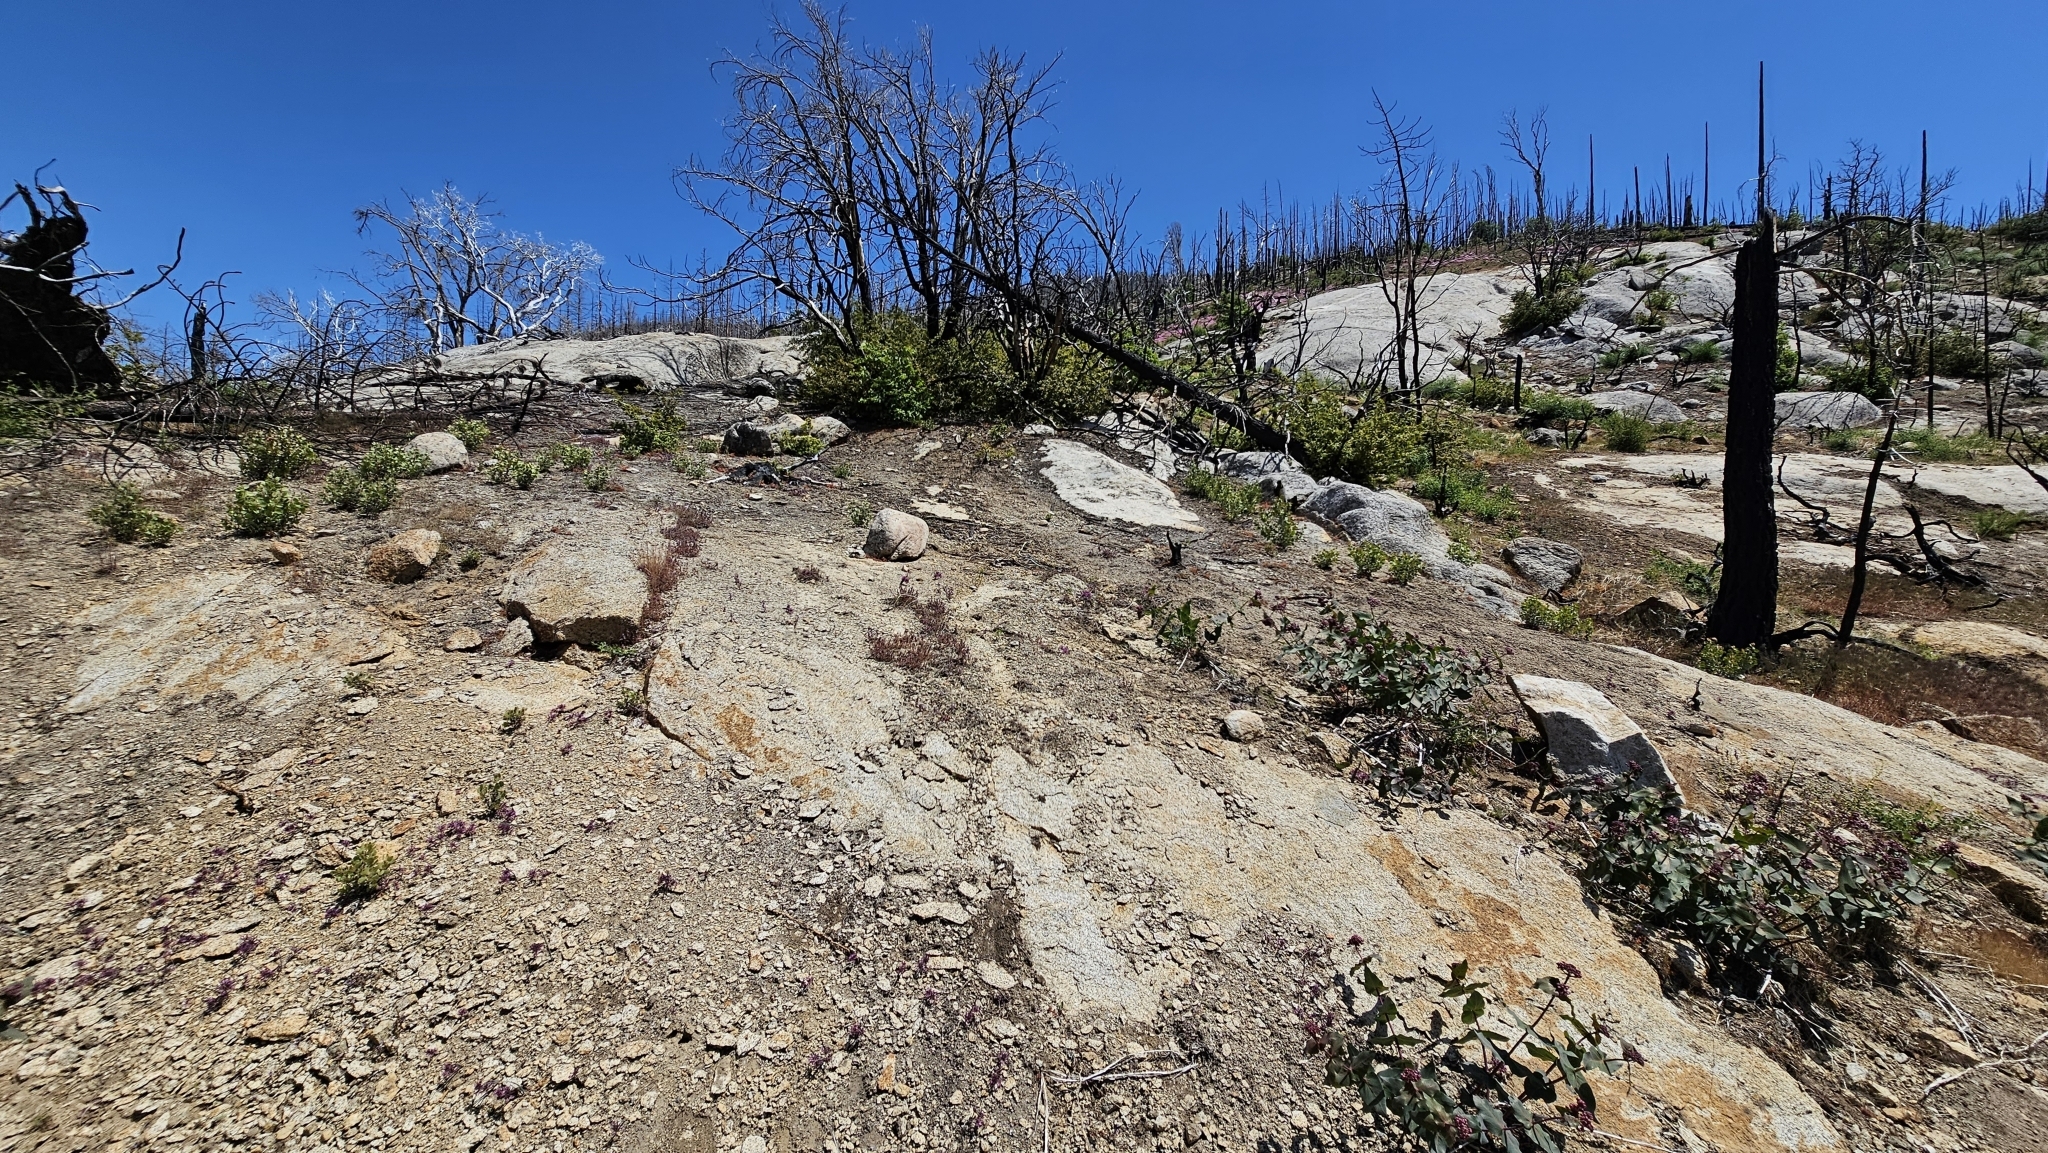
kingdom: Plantae
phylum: Tracheophyta
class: Liliopsida
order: Asparagales
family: Amaryllidaceae
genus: Allium
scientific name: Allium abramsii
